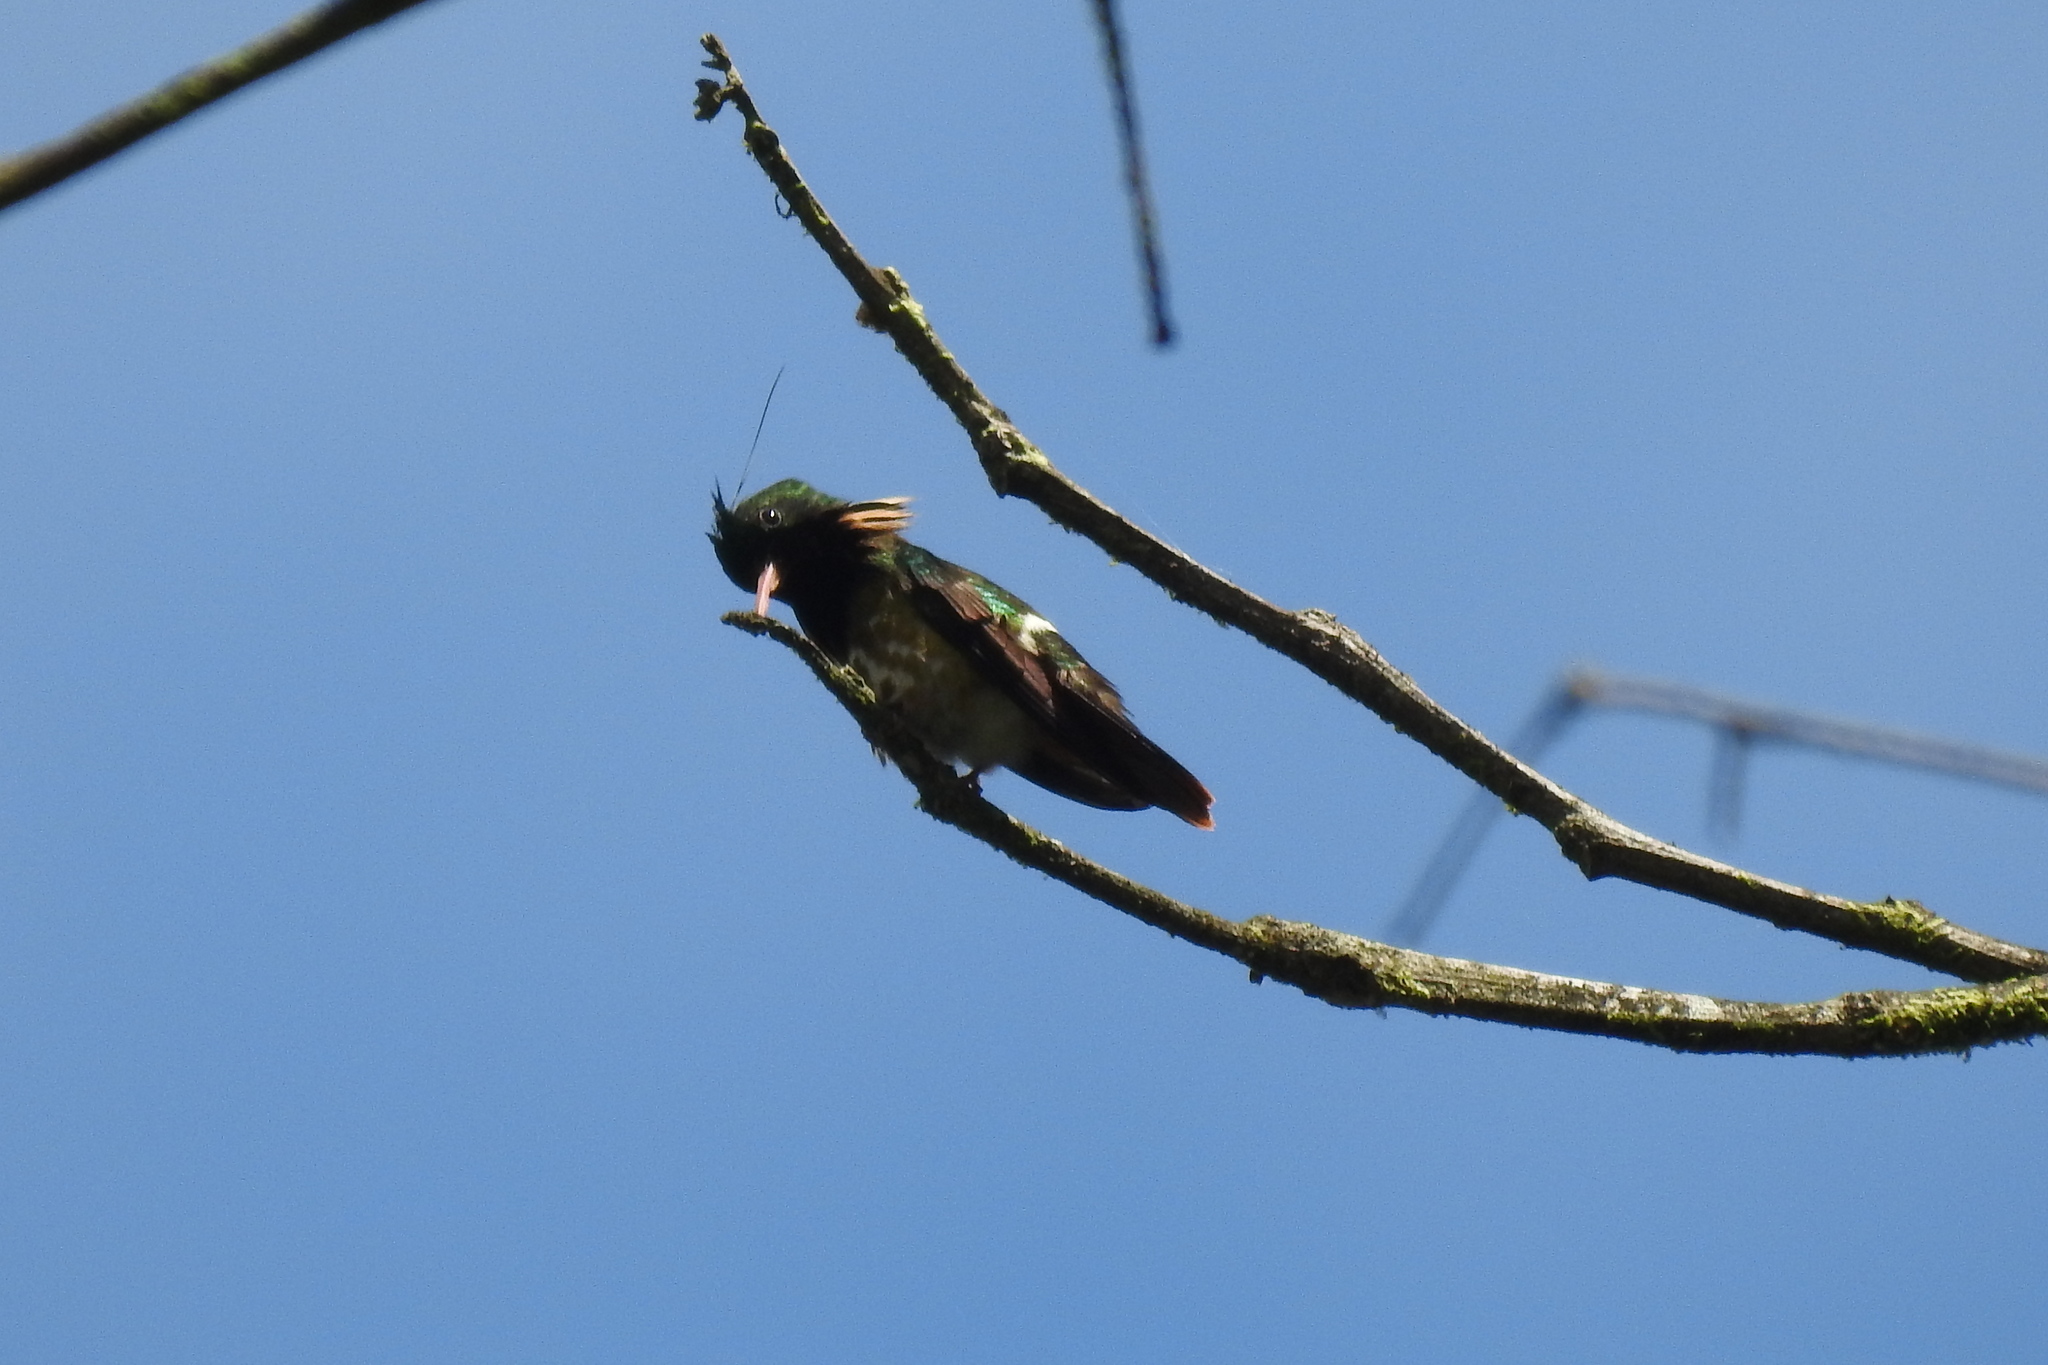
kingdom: Animalia
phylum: Chordata
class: Aves
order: Apodiformes
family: Trochilidae
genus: Lophornis
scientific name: Lophornis helenae
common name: Black-crested coquette
